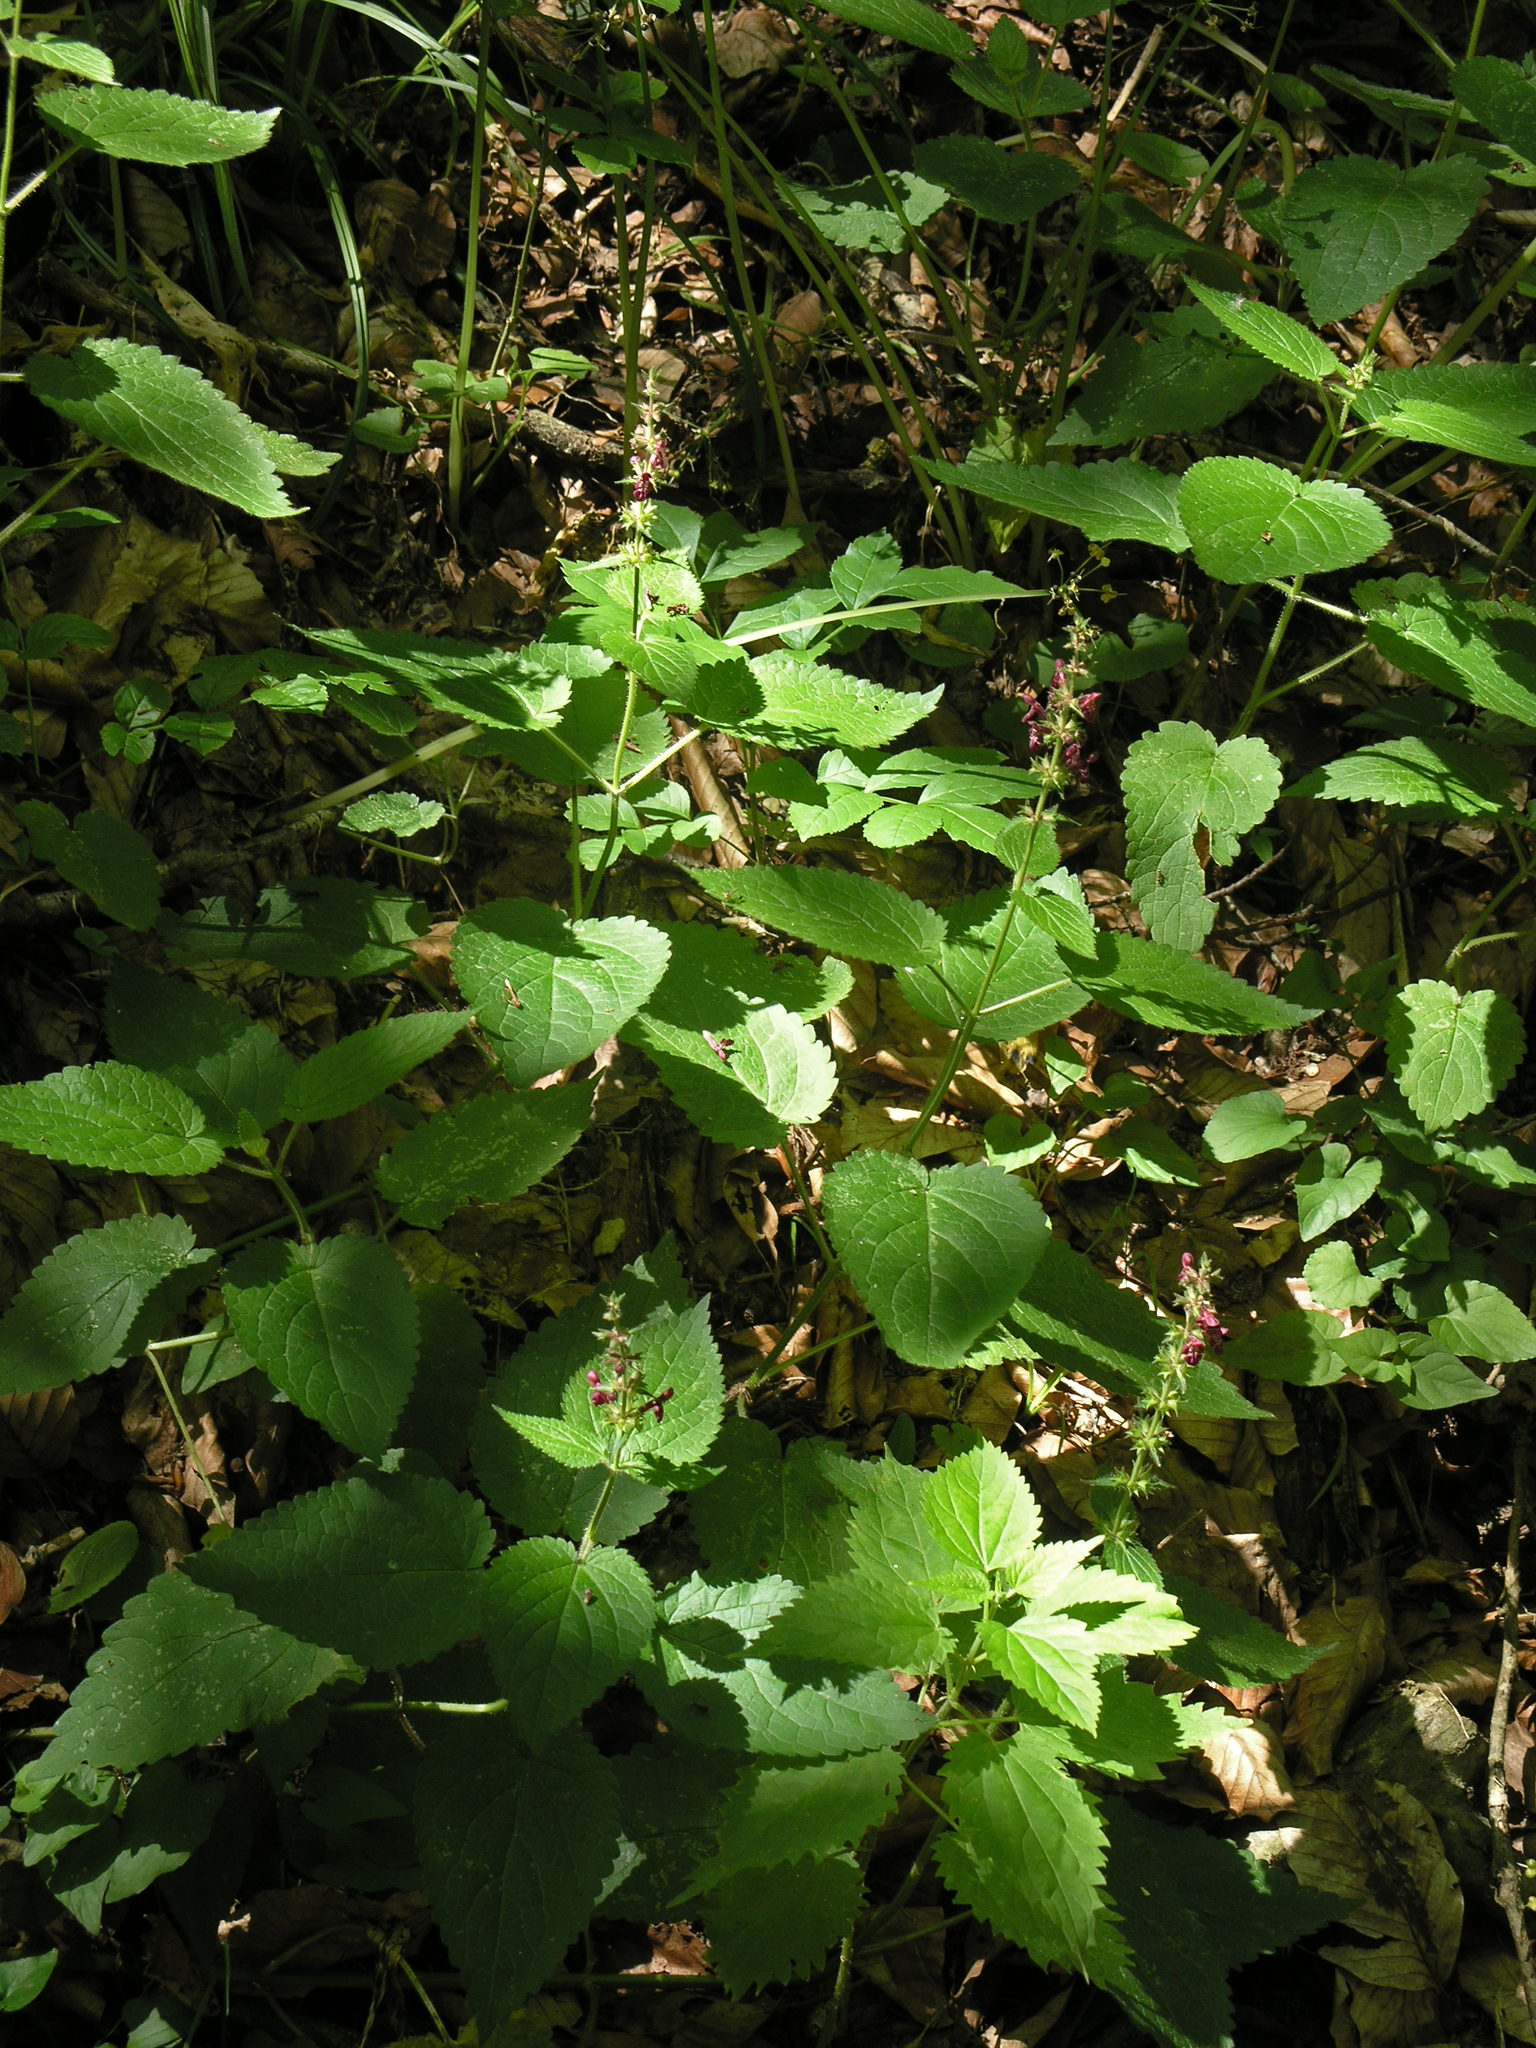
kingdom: Plantae
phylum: Tracheophyta
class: Magnoliopsida
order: Lamiales
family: Lamiaceae
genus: Stachys
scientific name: Stachys sylvatica
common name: Hedge woundwort
